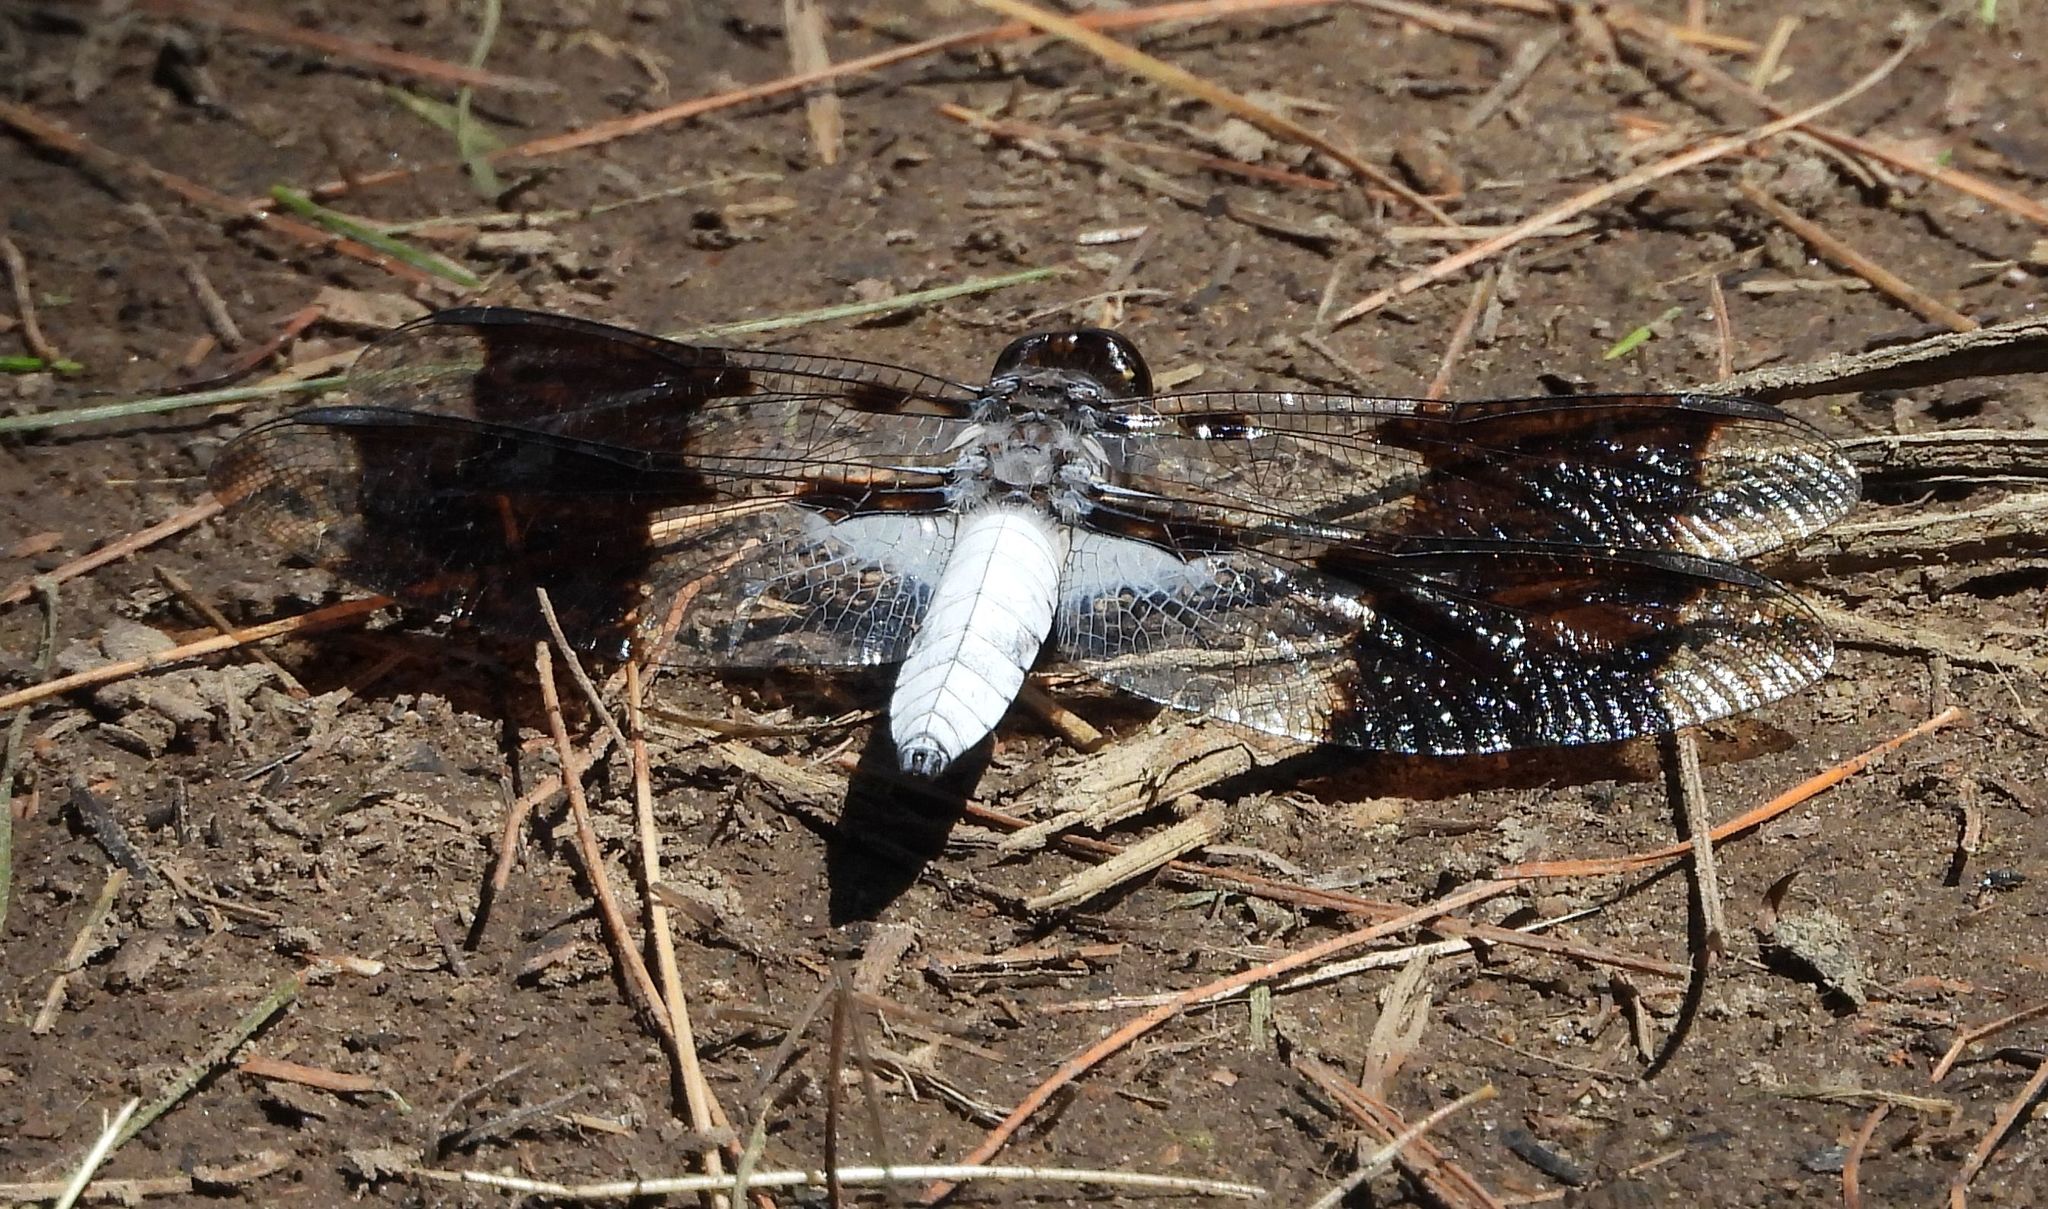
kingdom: Animalia
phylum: Arthropoda
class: Insecta
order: Odonata
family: Libellulidae
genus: Plathemis
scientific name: Plathemis lydia
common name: Common whitetail
